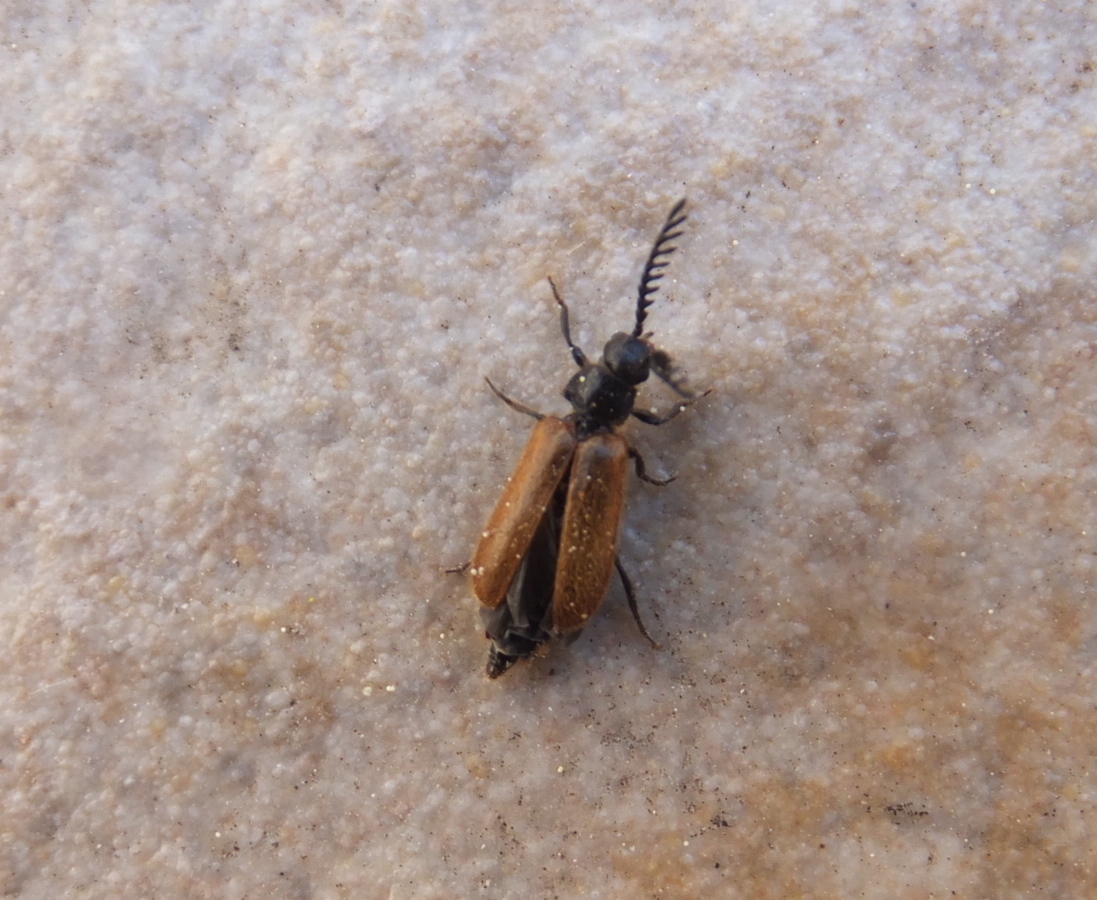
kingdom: Animalia
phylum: Arthropoda
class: Insecta
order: Coleoptera
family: Drilidae
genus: Drilus
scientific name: Drilus flavescens
